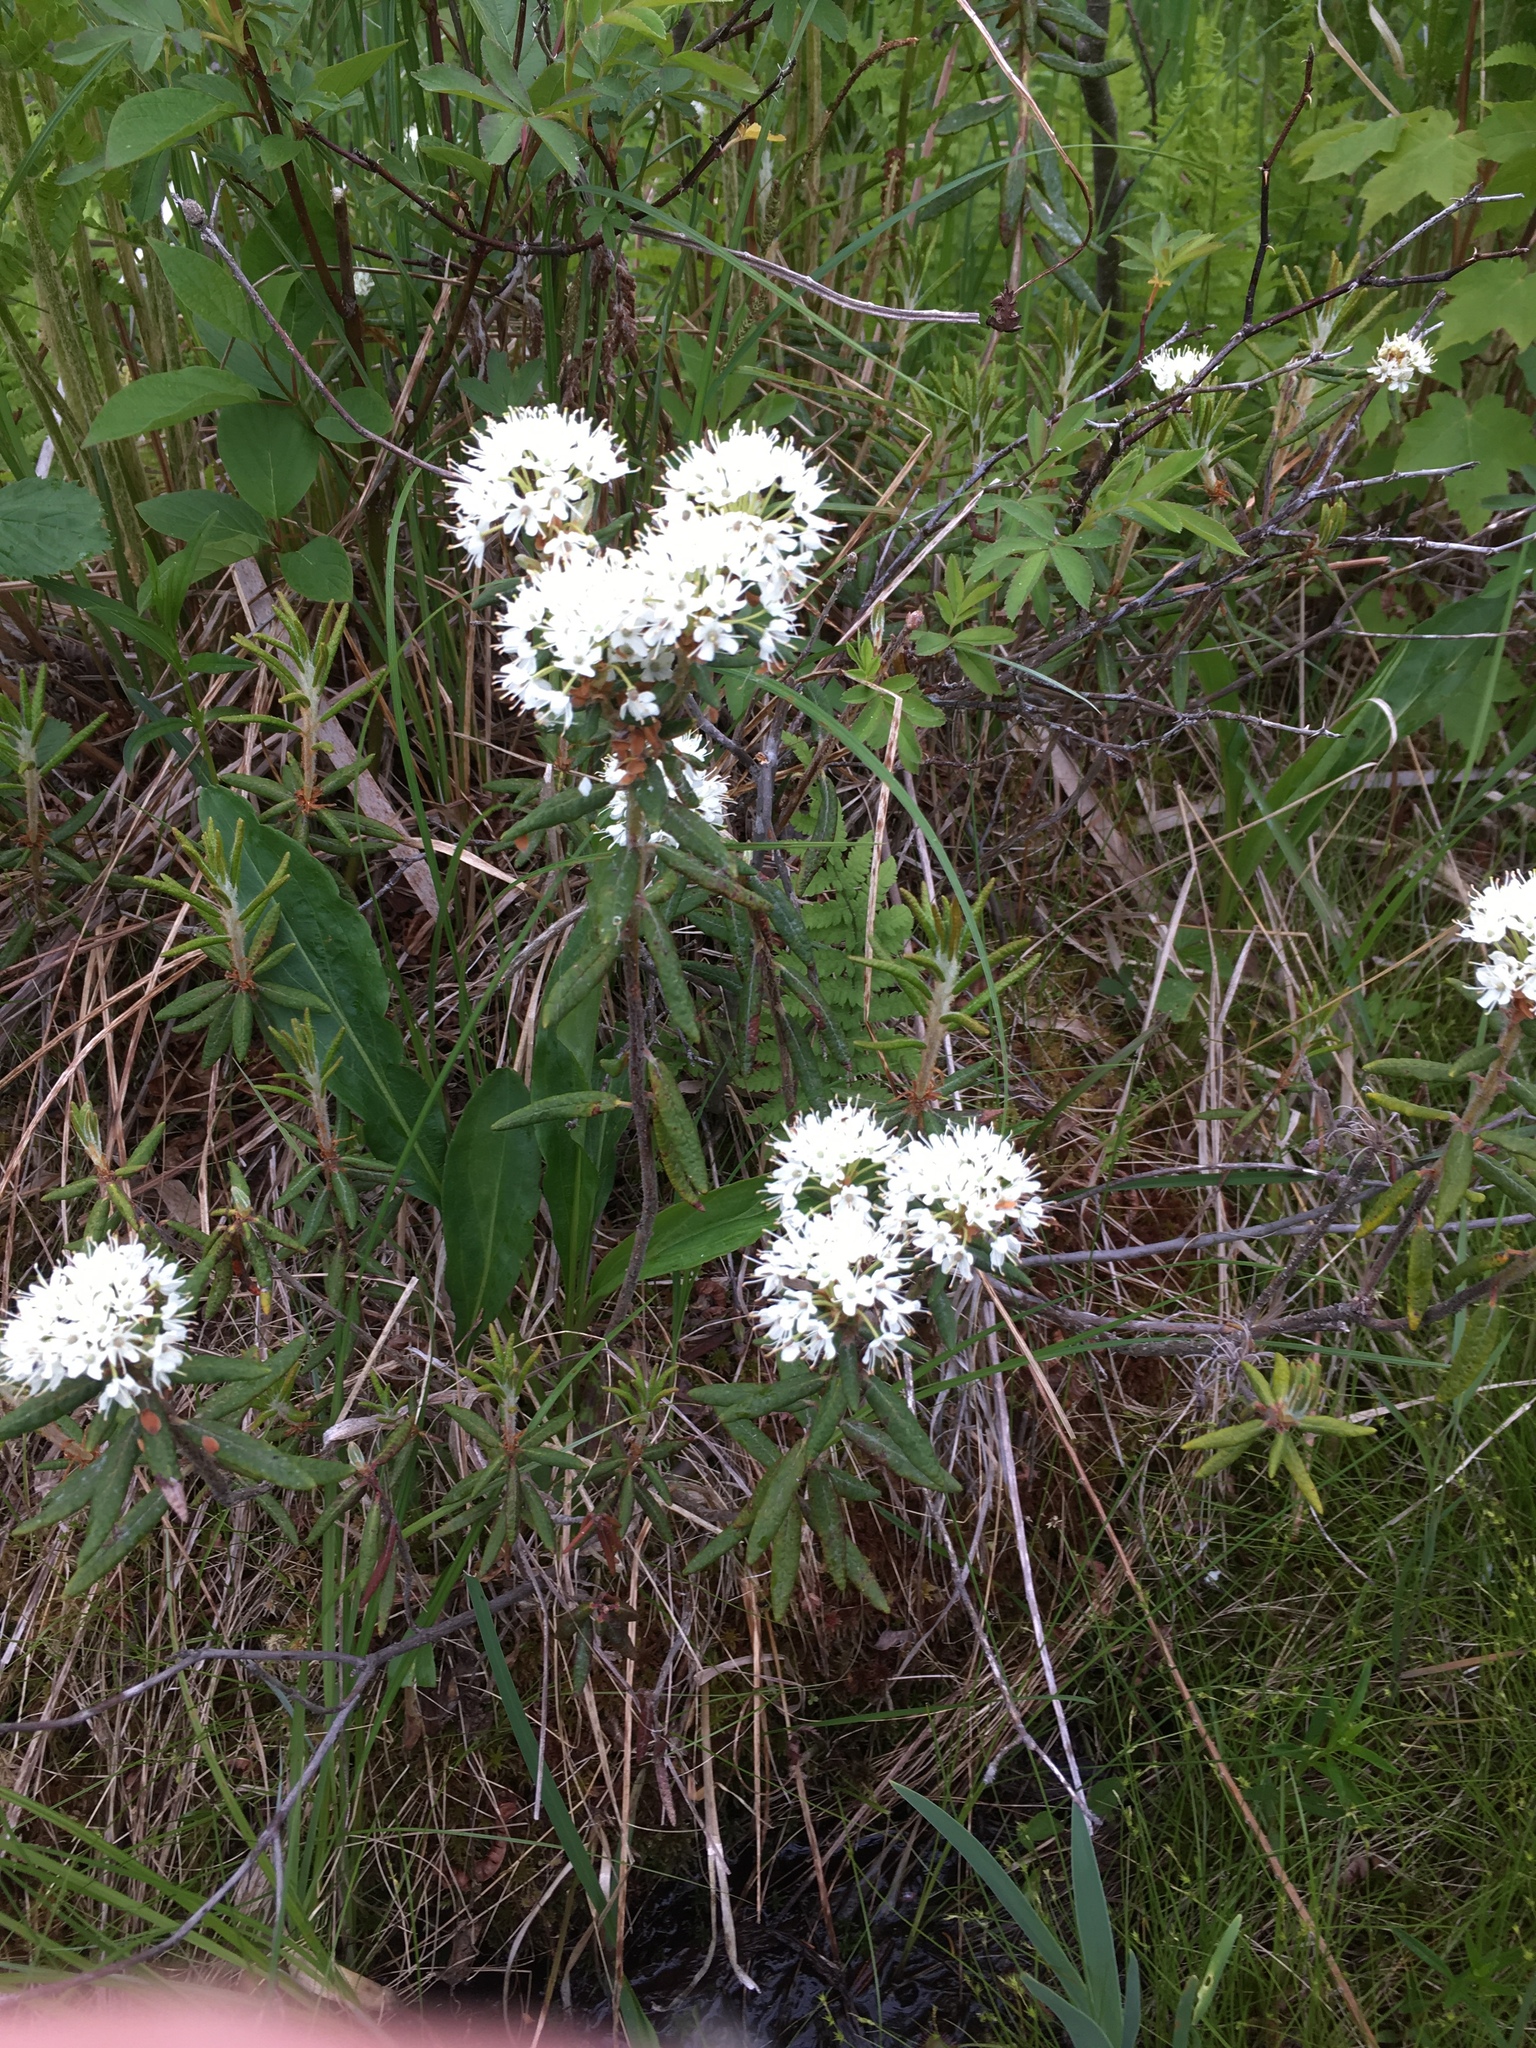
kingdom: Plantae
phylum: Tracheophyta
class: Magnoliopsida
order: Ericales
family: Ericaceae
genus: Rhododendron
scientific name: Rhododendron groenlandicum
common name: Bog labrador tea
